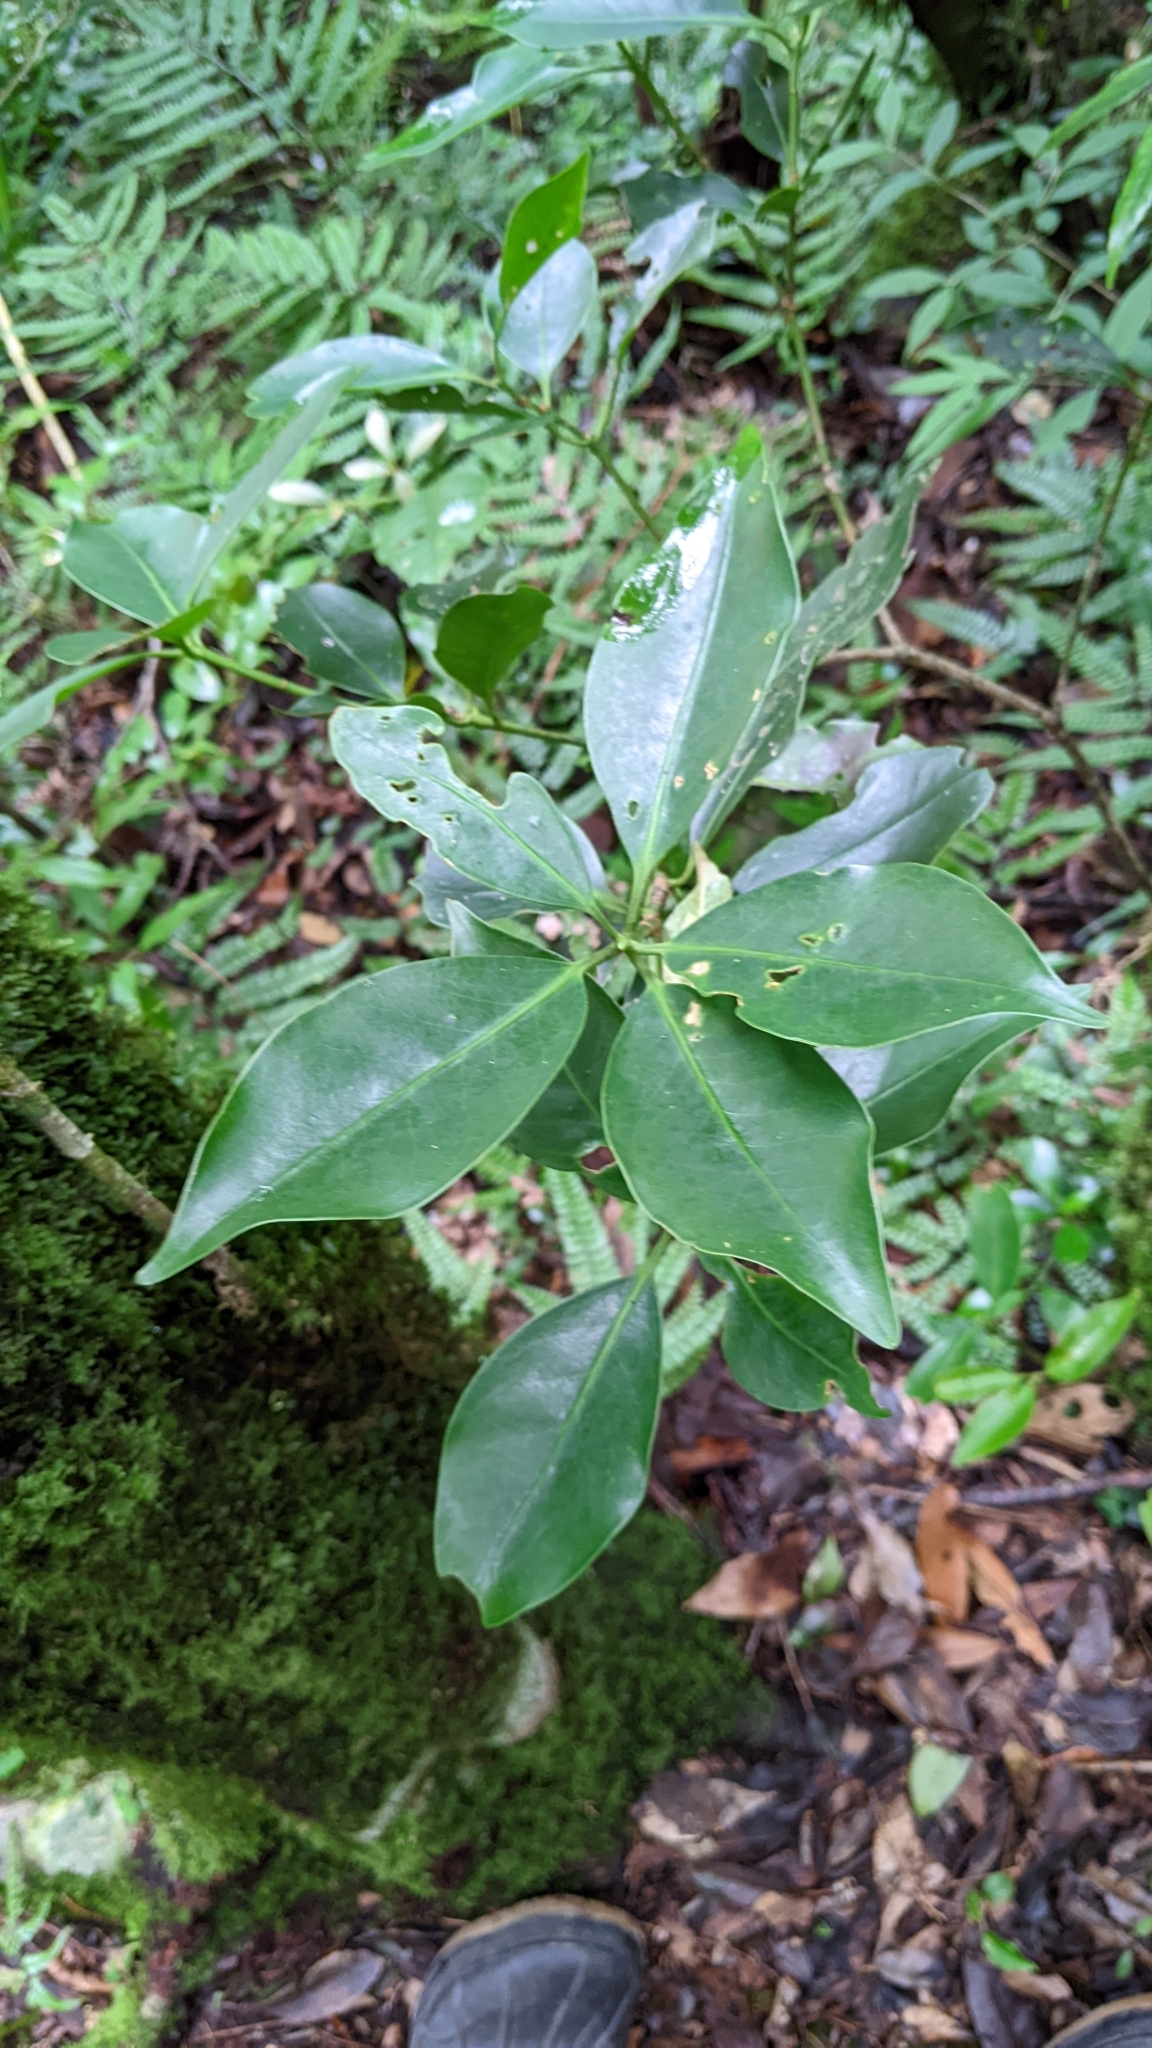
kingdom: Plantae
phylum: Tracheophyta
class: Magnoliopsida
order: Austrobaileyales
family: Schisandraceae
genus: Illicium
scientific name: Illicium anisatum
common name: Sacred anisetree
